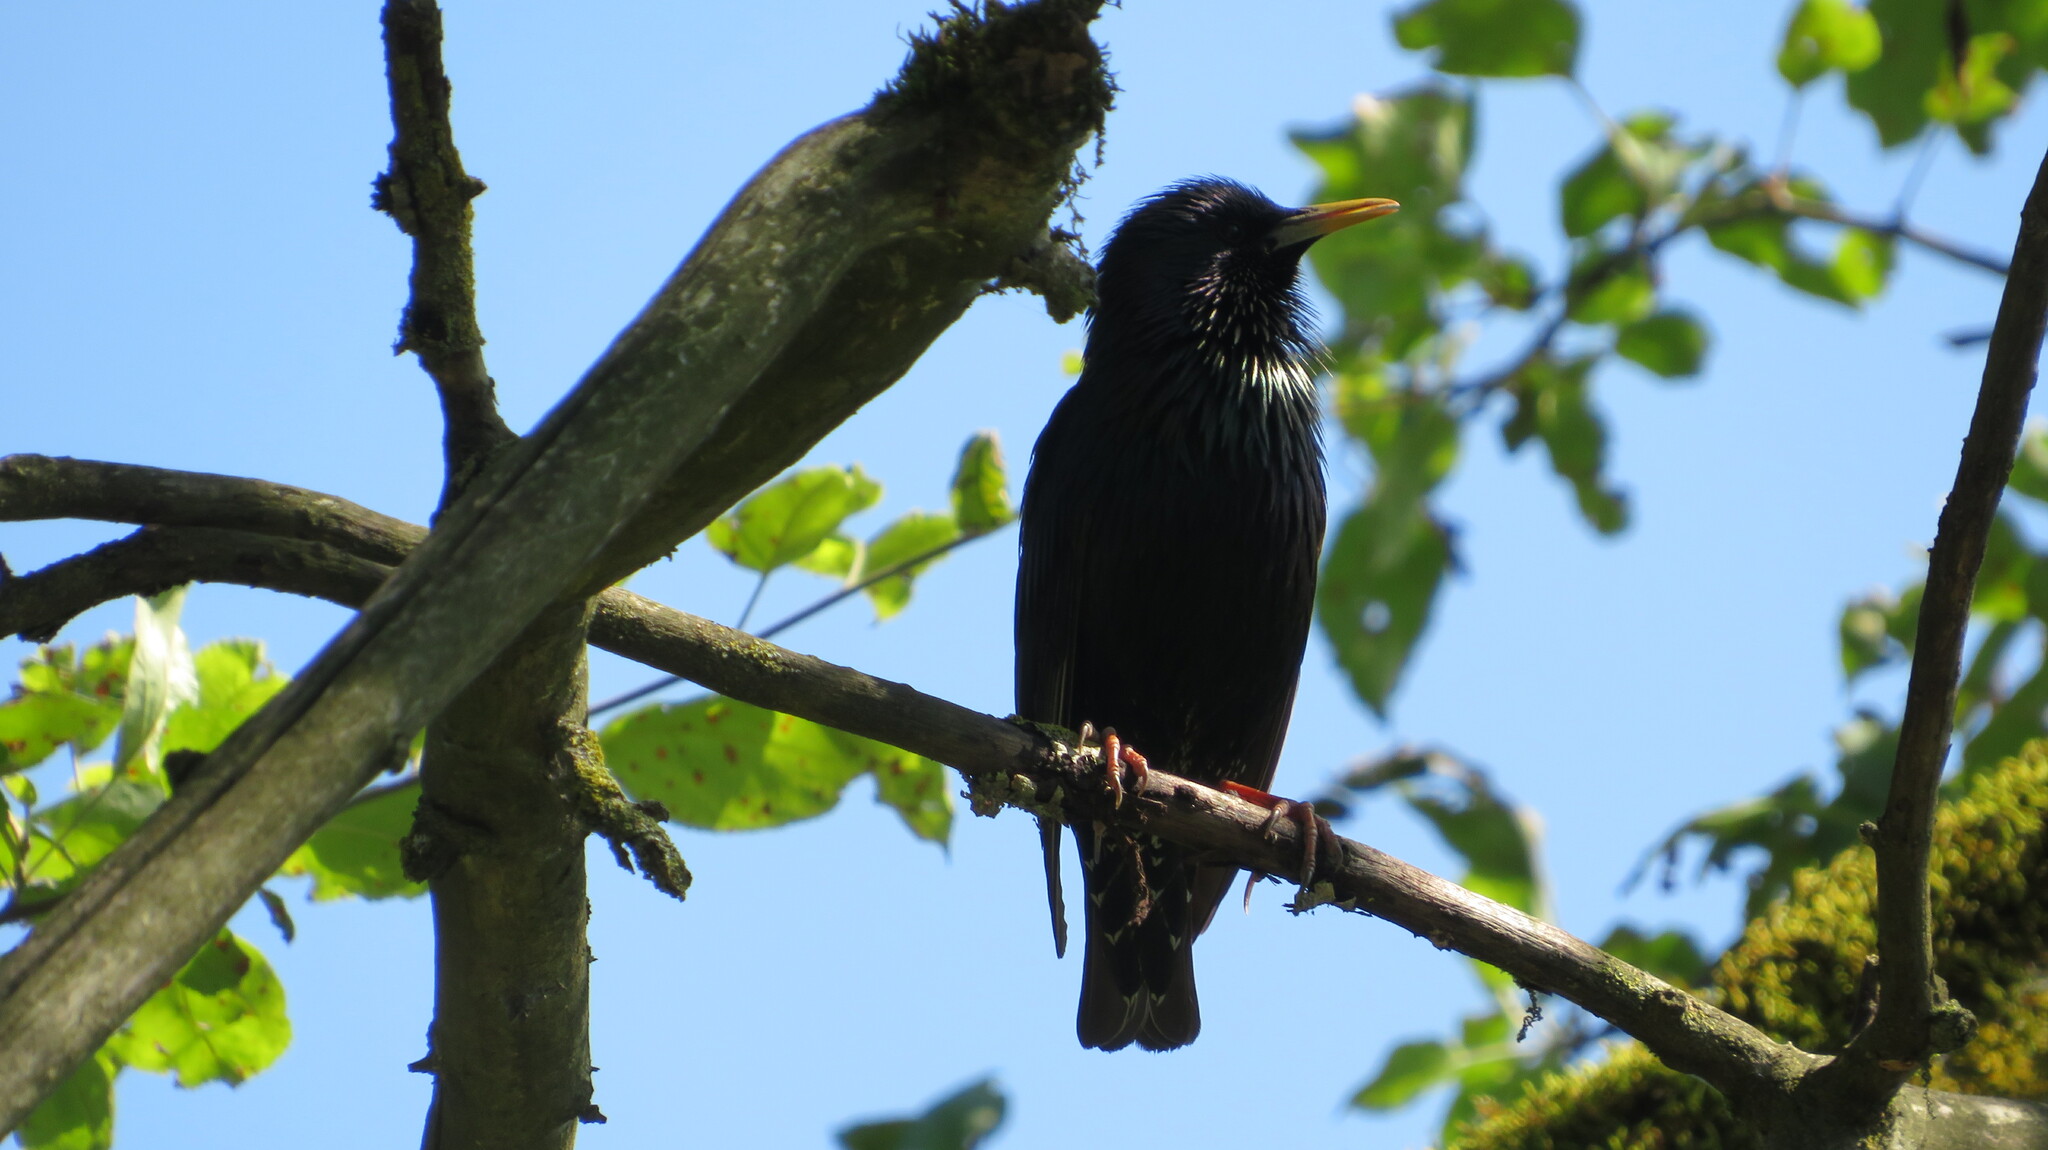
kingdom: Animalia
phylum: Chordata
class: Aves
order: Passeriformes
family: Sturnidae
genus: Sturnus
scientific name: Sturnus vulgaris
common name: Common starling
